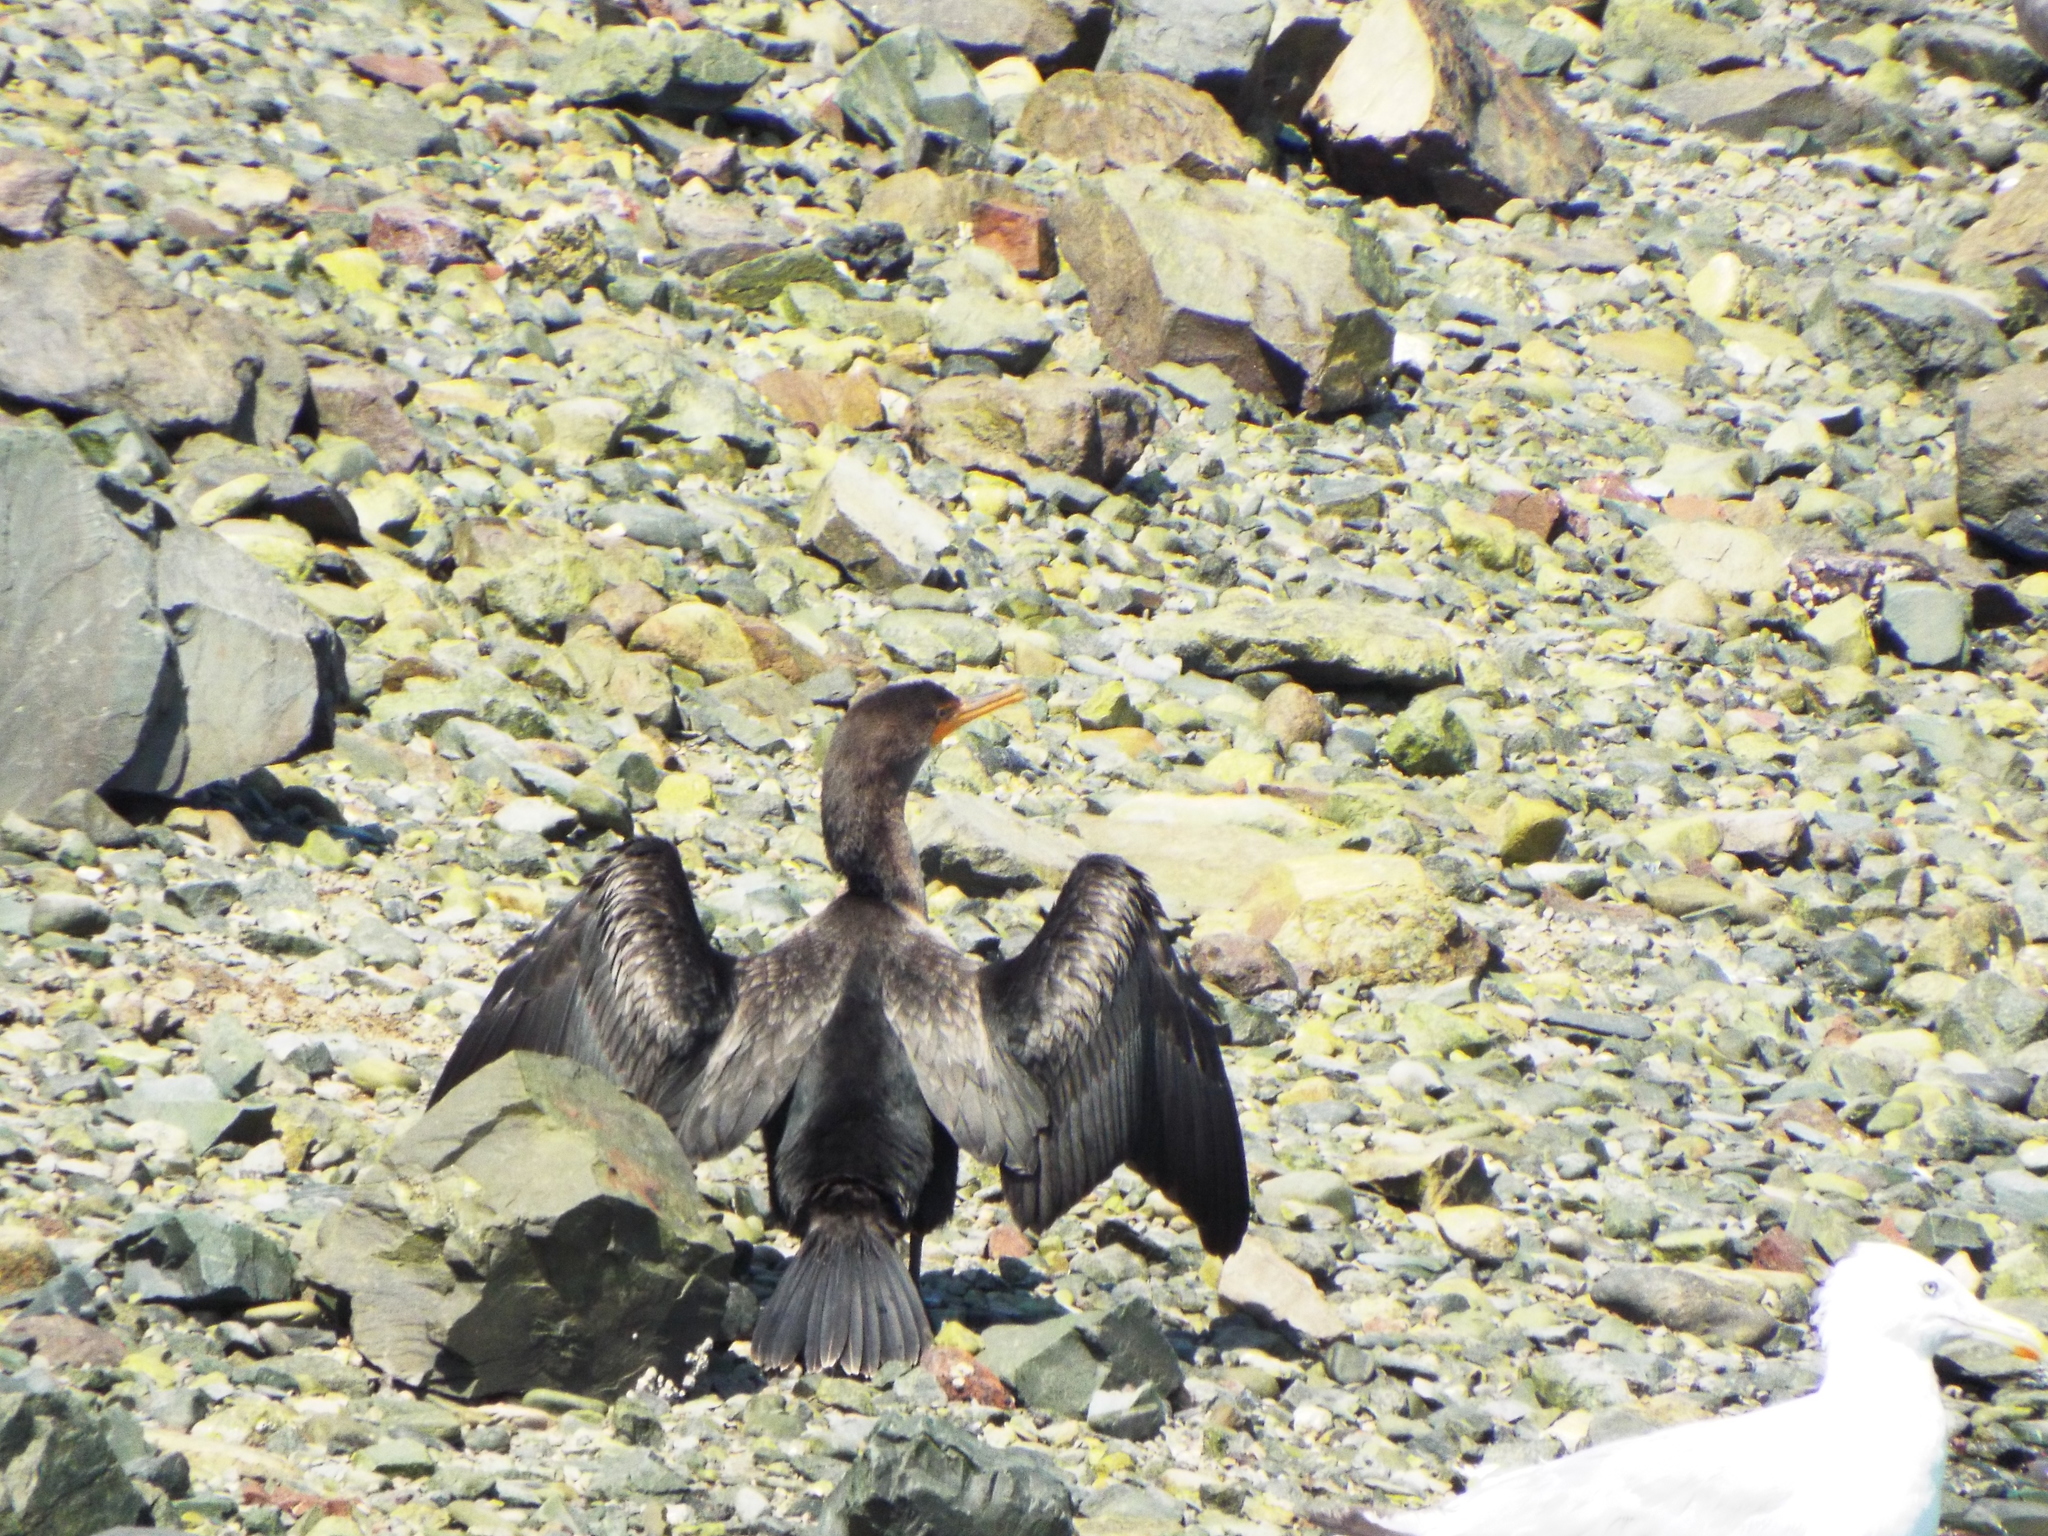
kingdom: Animalia
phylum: Chordata
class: Aves
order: Suliformes
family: Phalacrocoracidae
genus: Phalacrocorax
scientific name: Phalacrocorax auritus
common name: Double-crested cormorant
